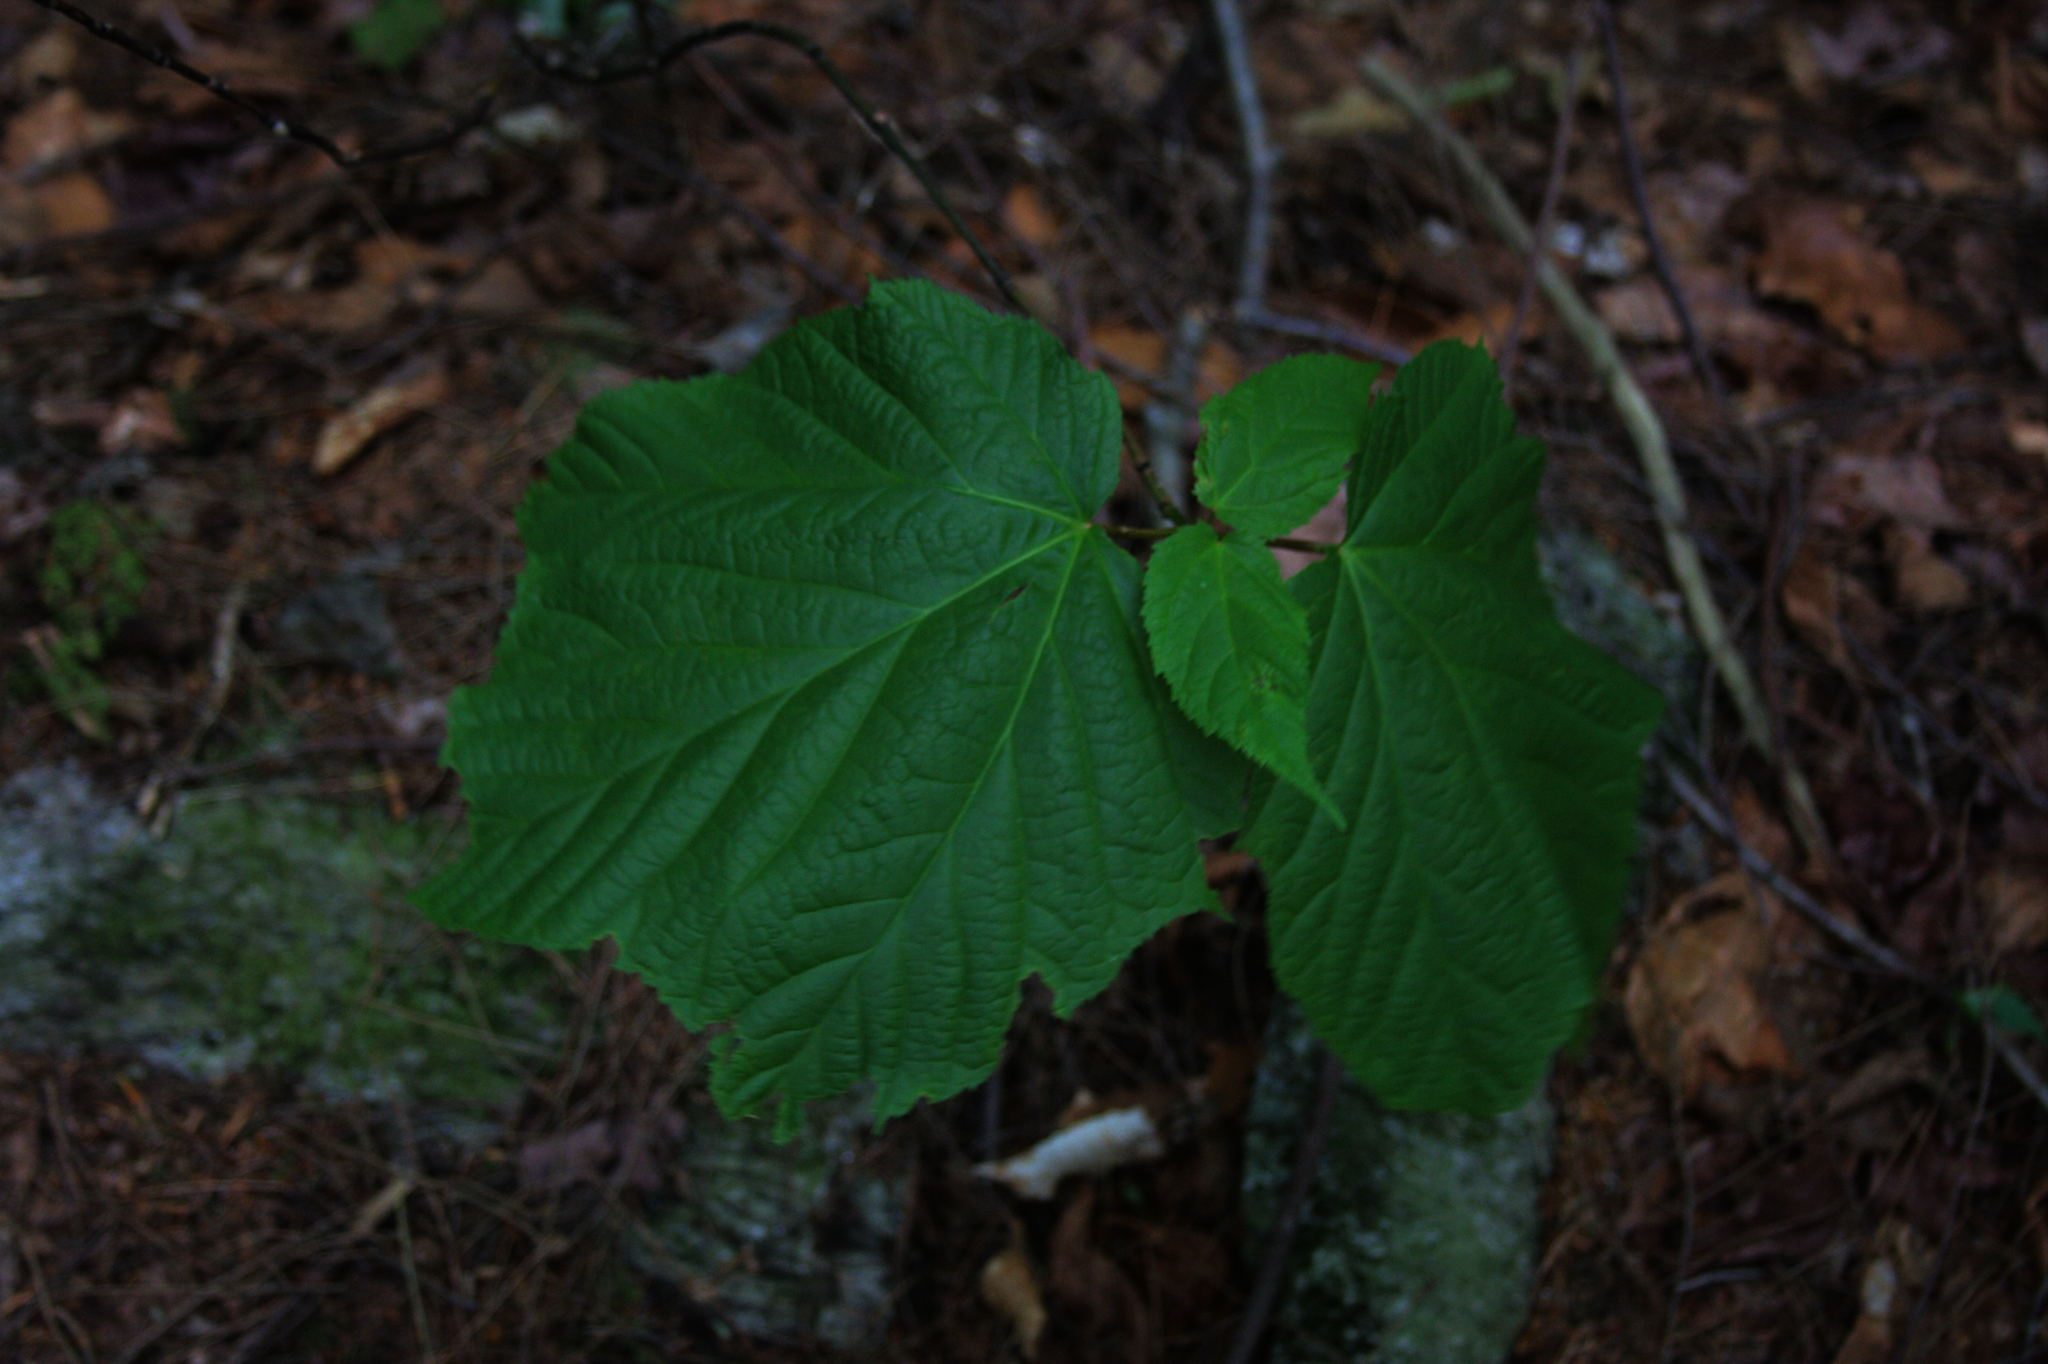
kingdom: Plantae
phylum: Tracheophyta
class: Magnoliopsida
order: Sapindales
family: Sapindaceae
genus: Acer
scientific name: Acer pensylvanicum
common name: Moosewood
